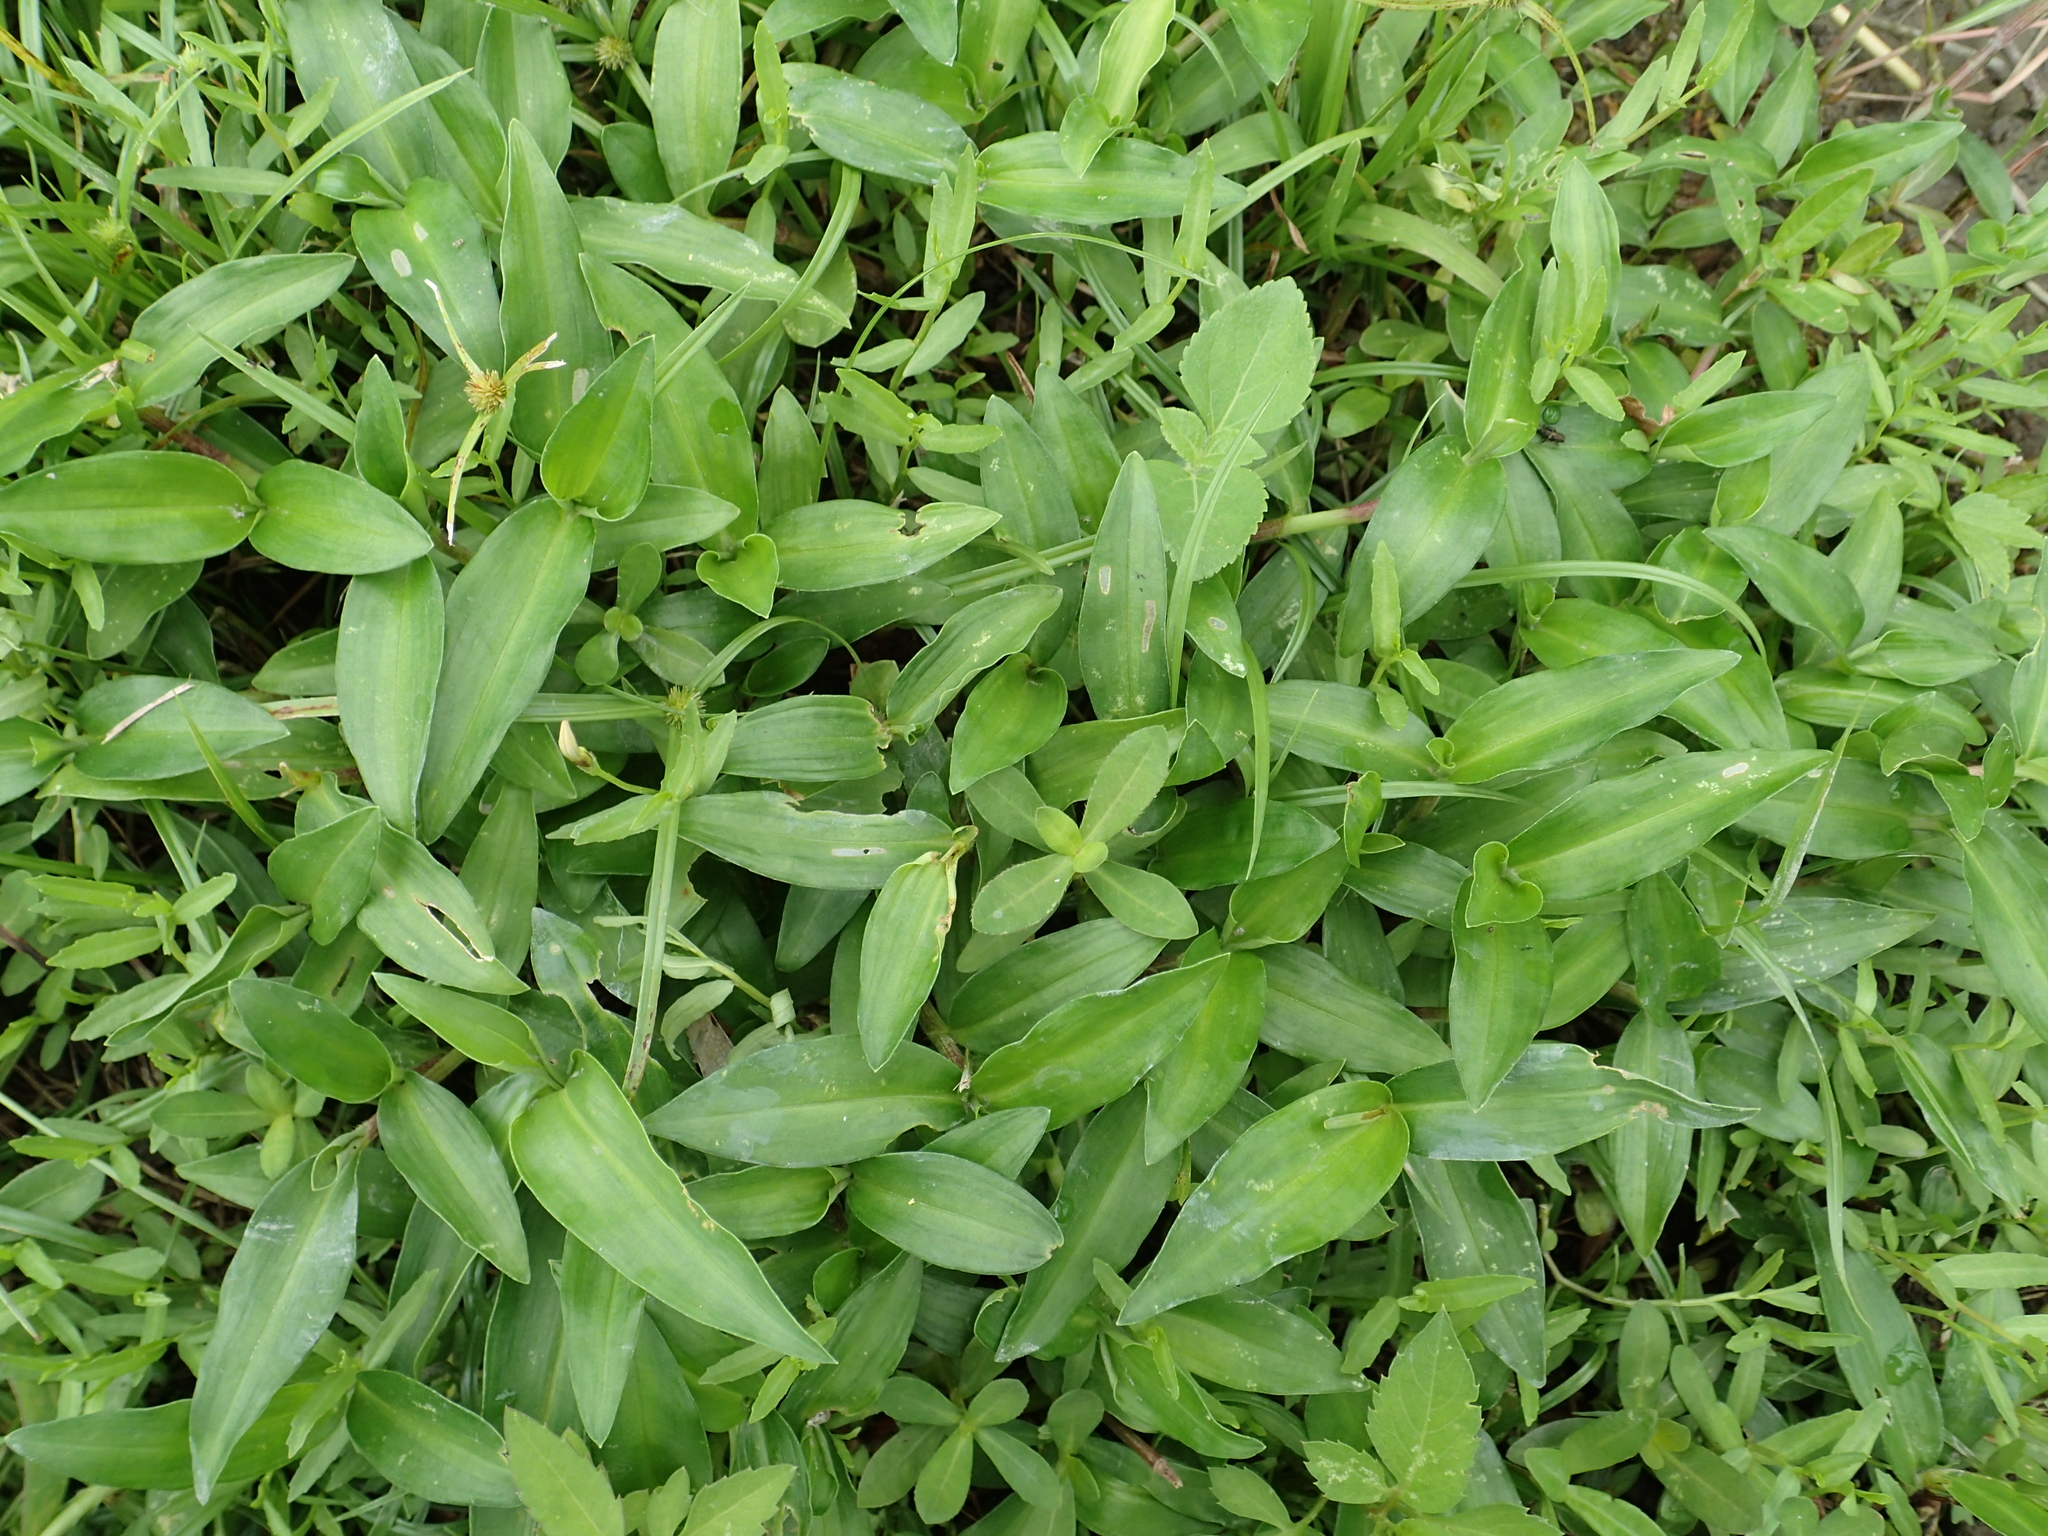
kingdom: Plantae
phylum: Tracheophyta
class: Liliopsida
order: Commelinales
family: Commelinaceae
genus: Murdannia
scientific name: Murdannia loriformis
